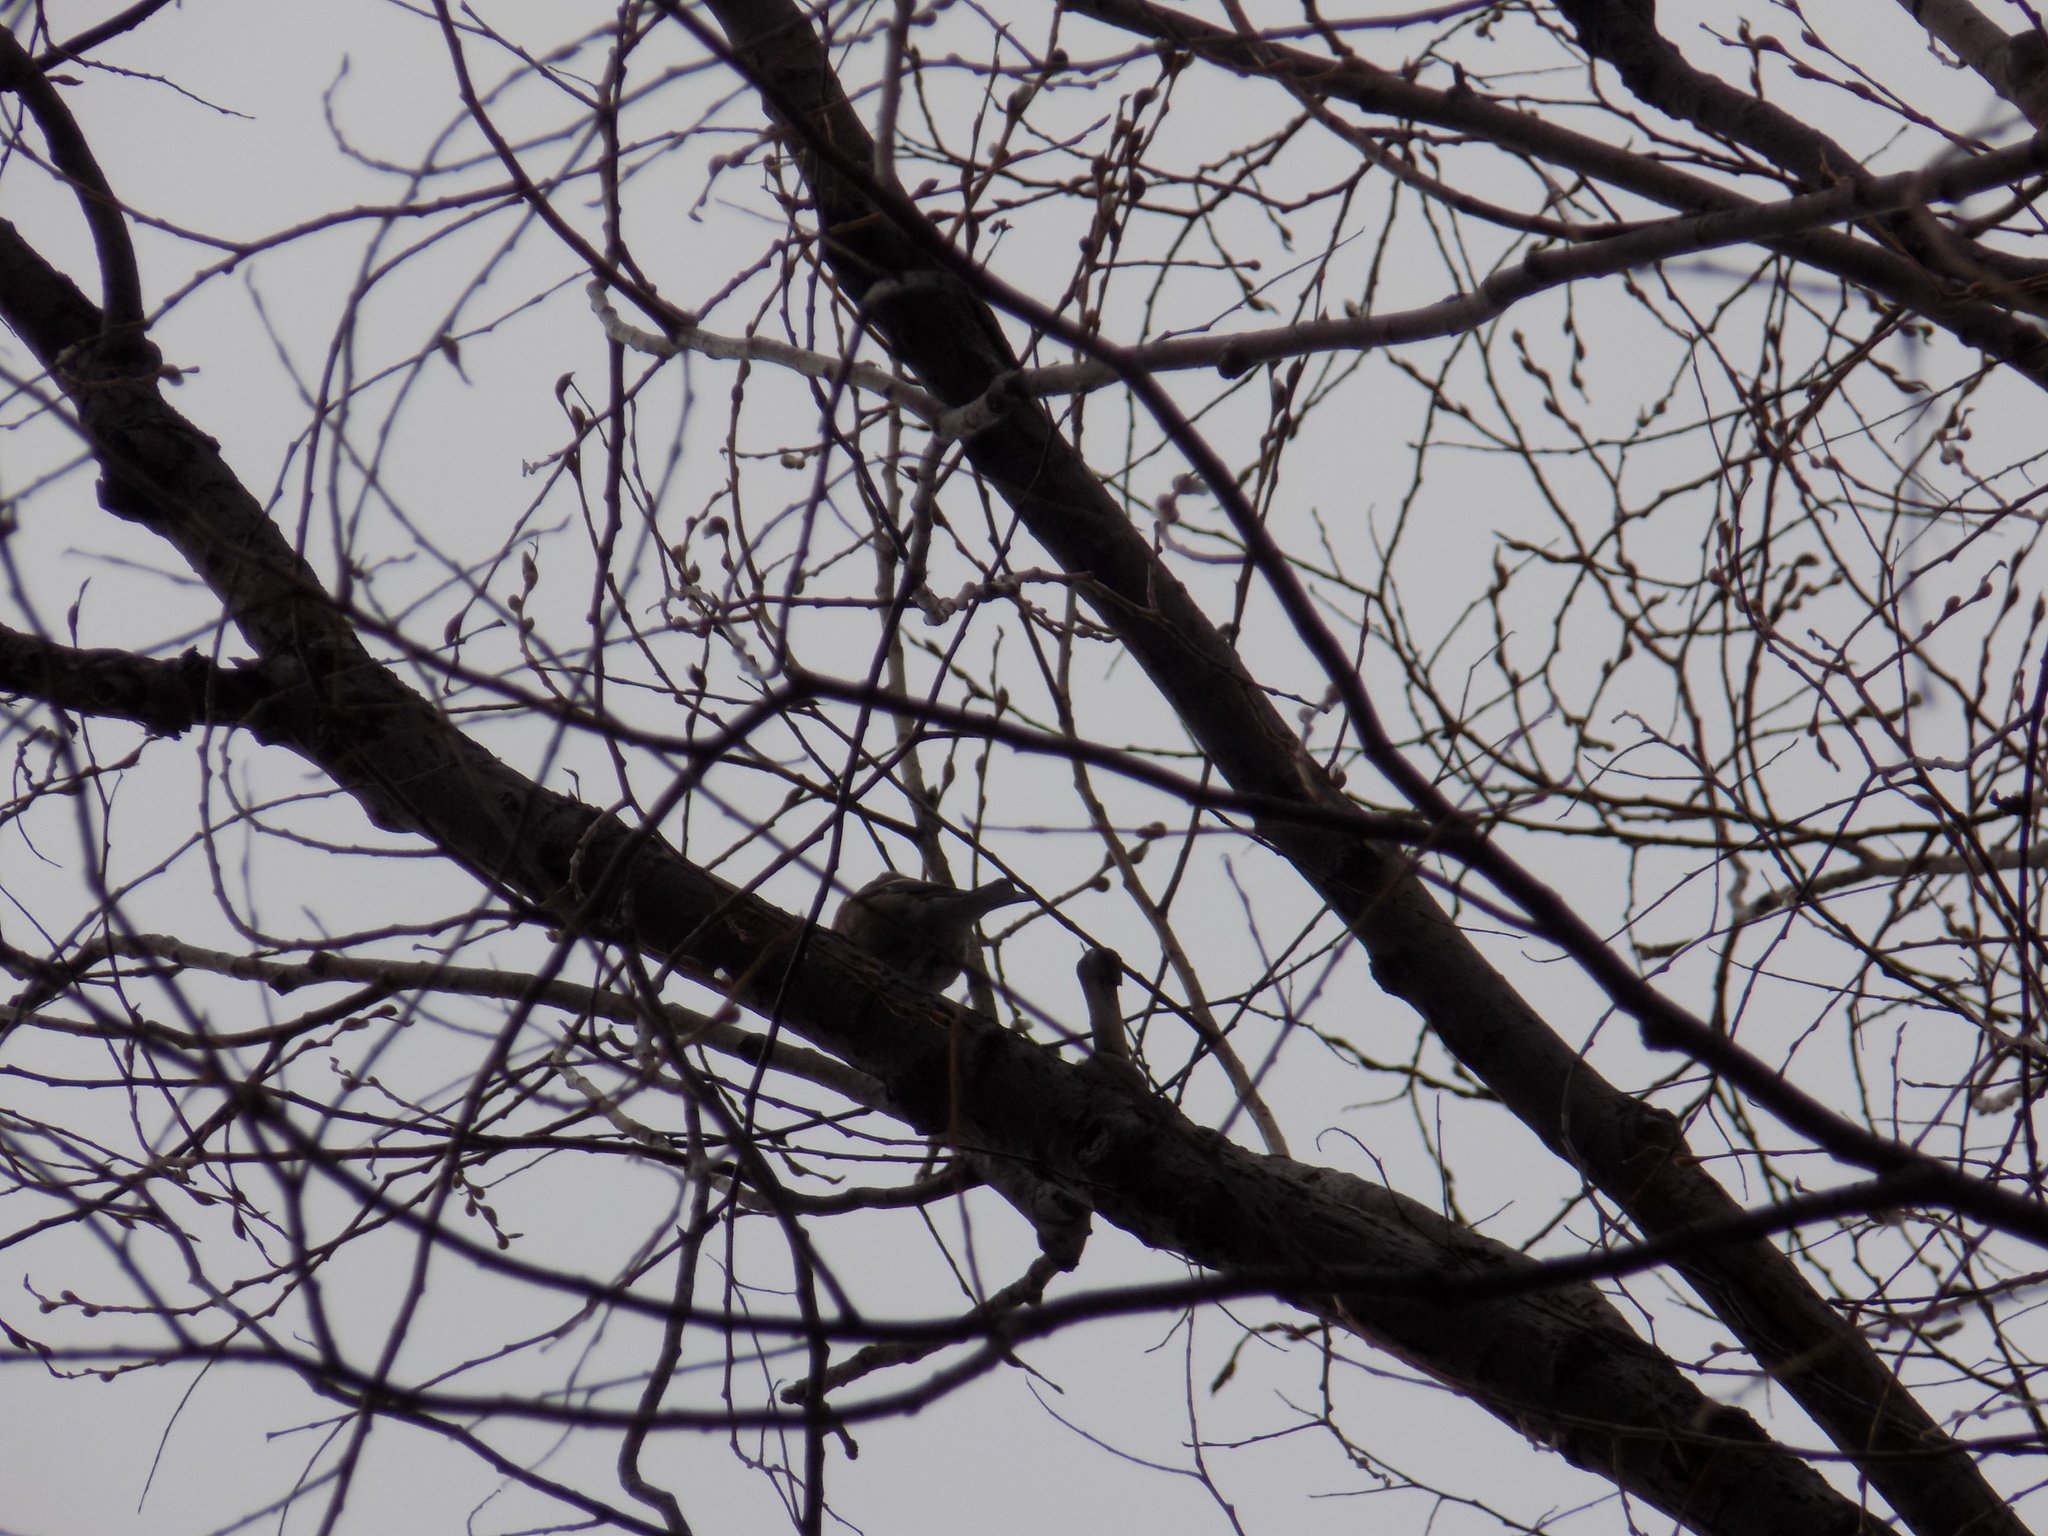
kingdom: Animalia
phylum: Chordata
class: Aves
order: Passeriformes
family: Fringillidae
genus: Fringilla
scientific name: Fringilla coelebs
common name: Common chaffinch
